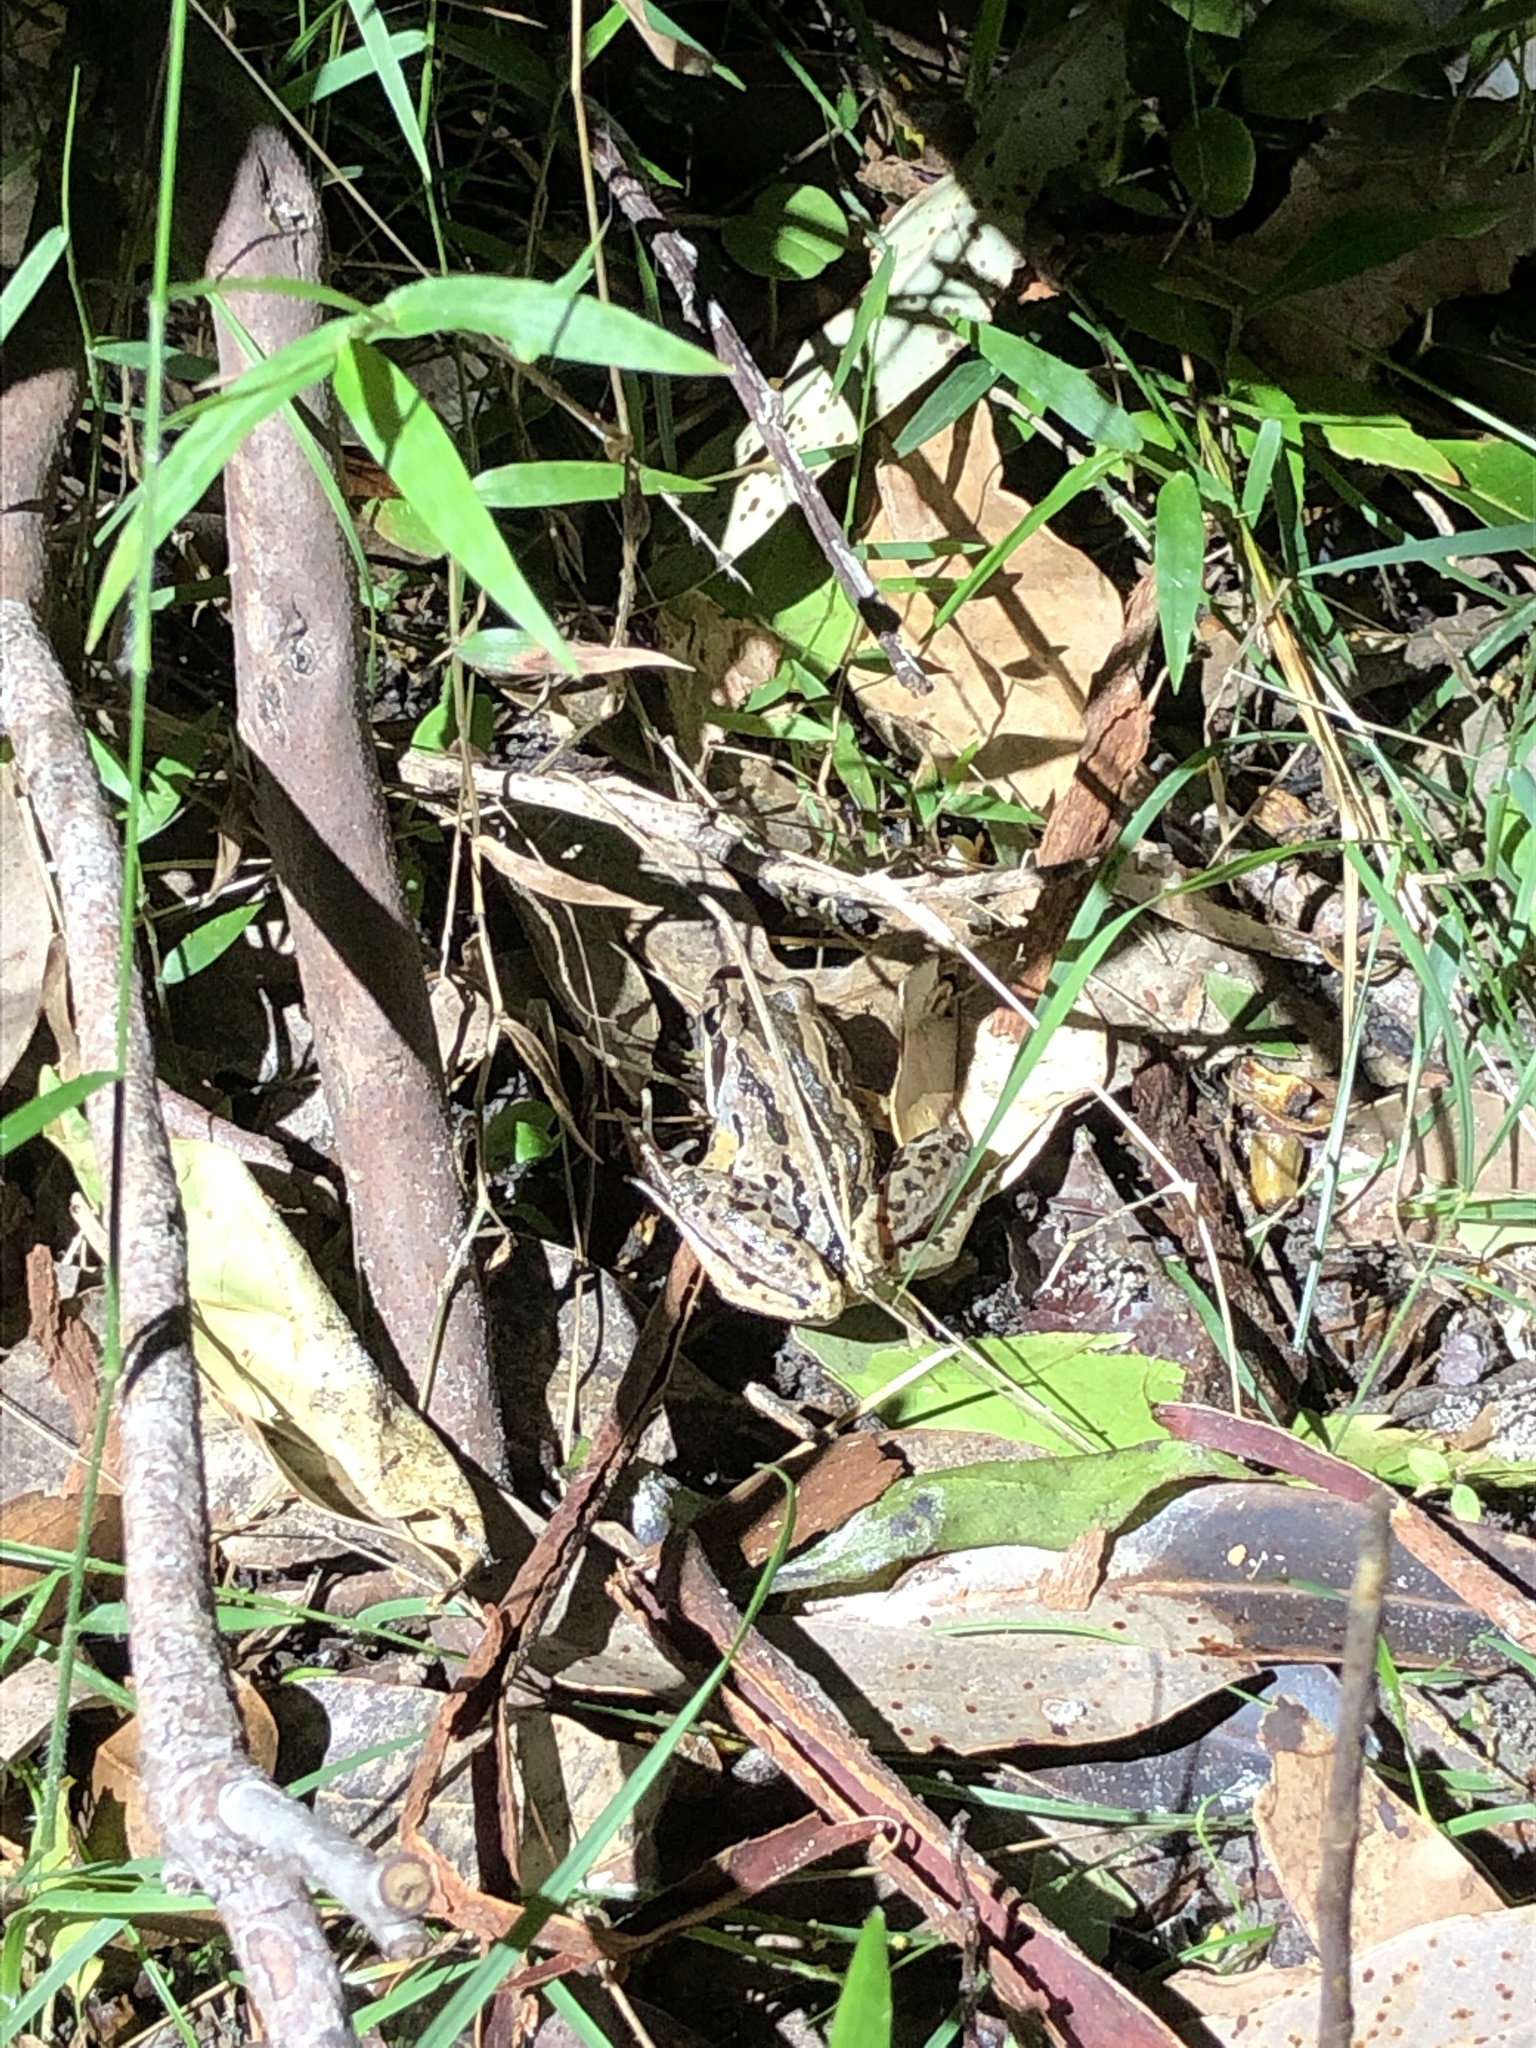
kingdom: Animalia
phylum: Chordata
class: Amphibia
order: Anura
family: Limnodynastidae
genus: Limnodynastes
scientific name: Limnodynastes peronii
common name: Brown frog
